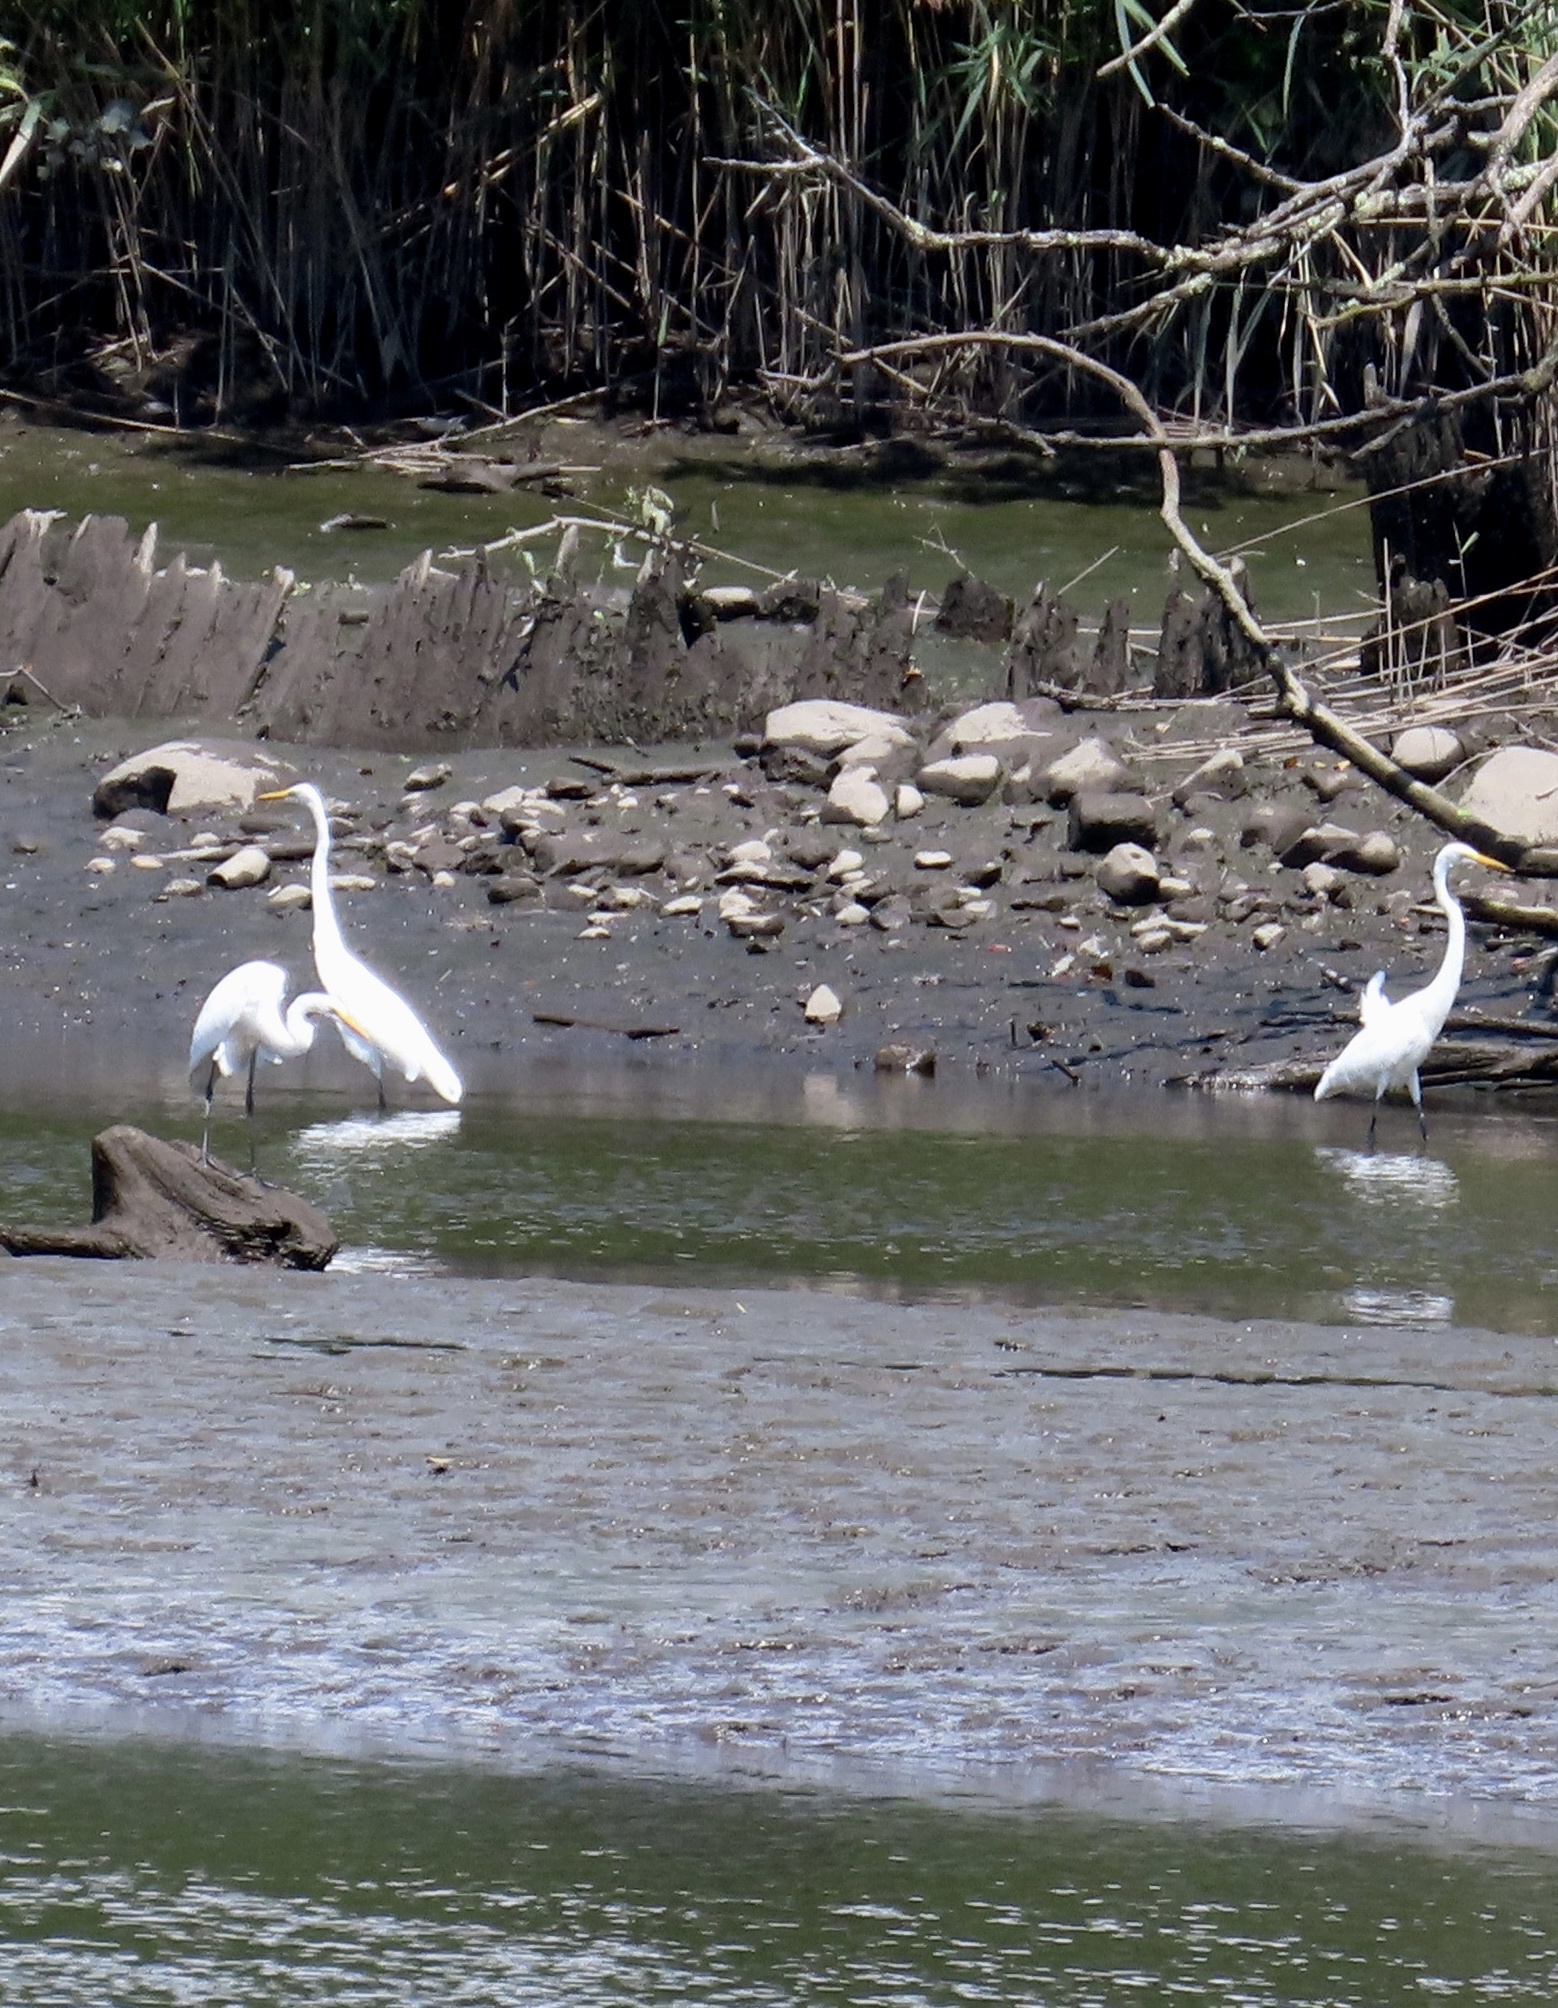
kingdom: Animalia
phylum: Chordata
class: Aves
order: Pelecaniformes
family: Ardeidae
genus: Ardea
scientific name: Ardea alba
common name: Great egret
